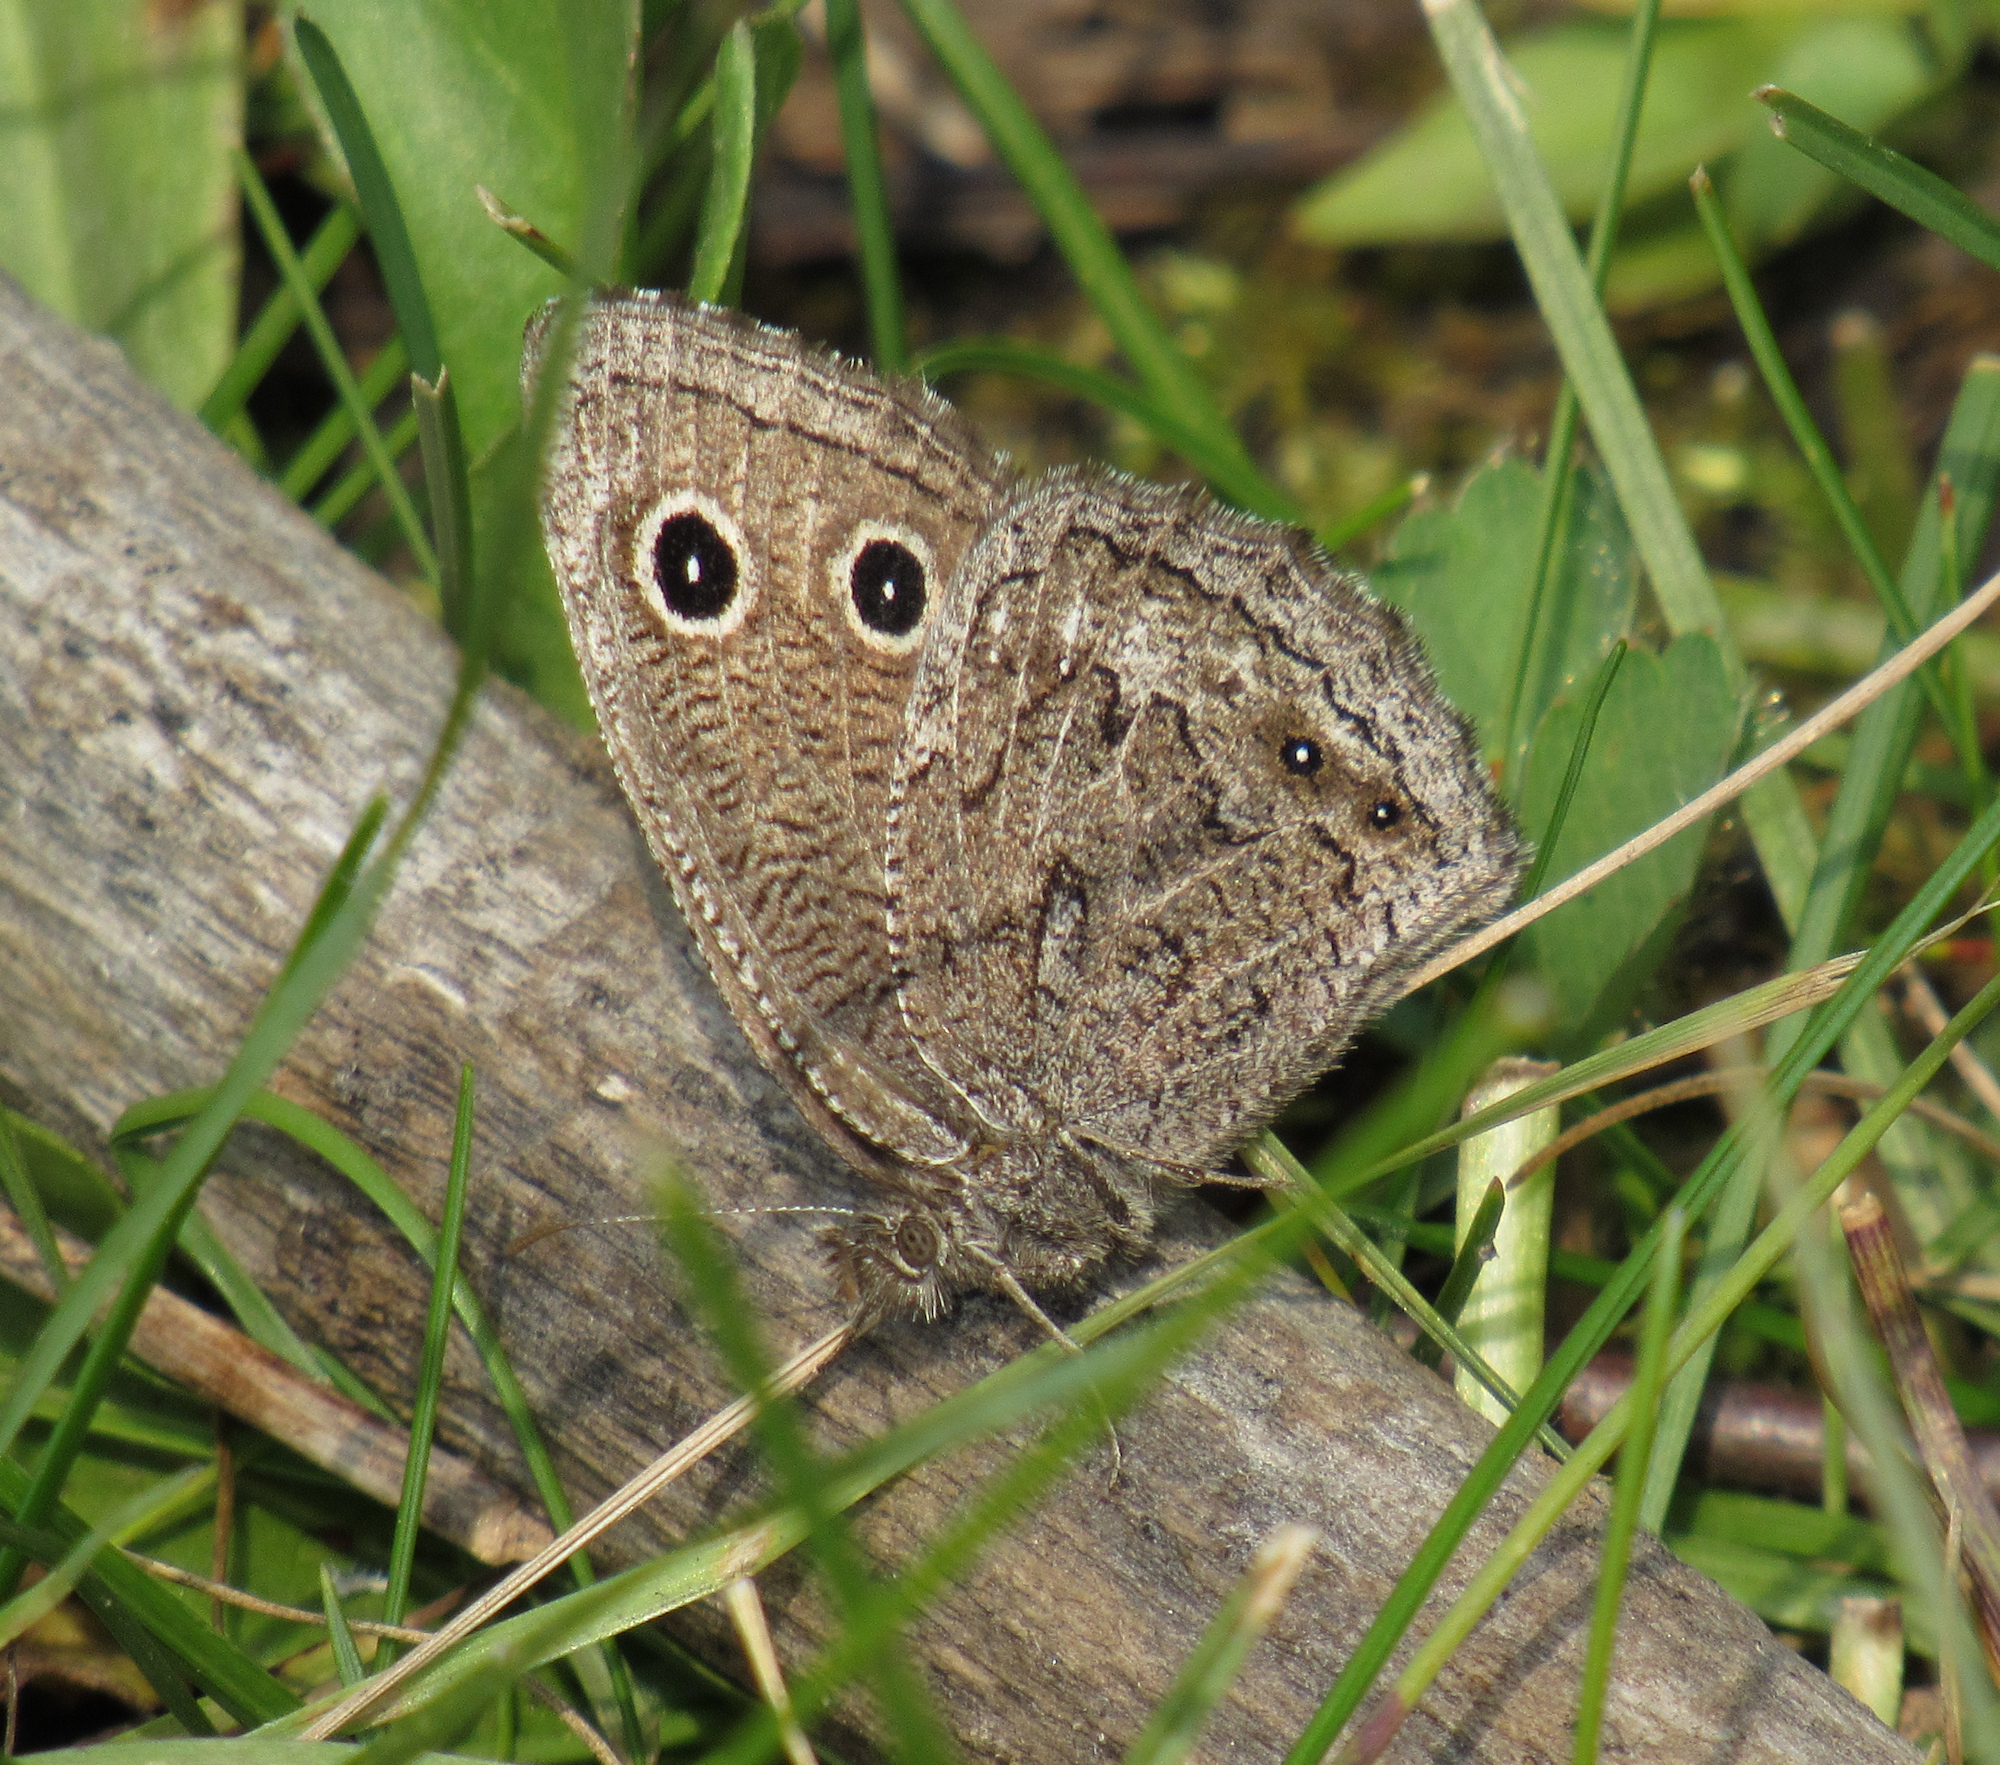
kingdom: Animalia
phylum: Arthropoda
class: Insecta
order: Lepidoptera
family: Nymphalidae
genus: Cercyonis
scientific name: Cercyonis oetus
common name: Small wood-nymph
